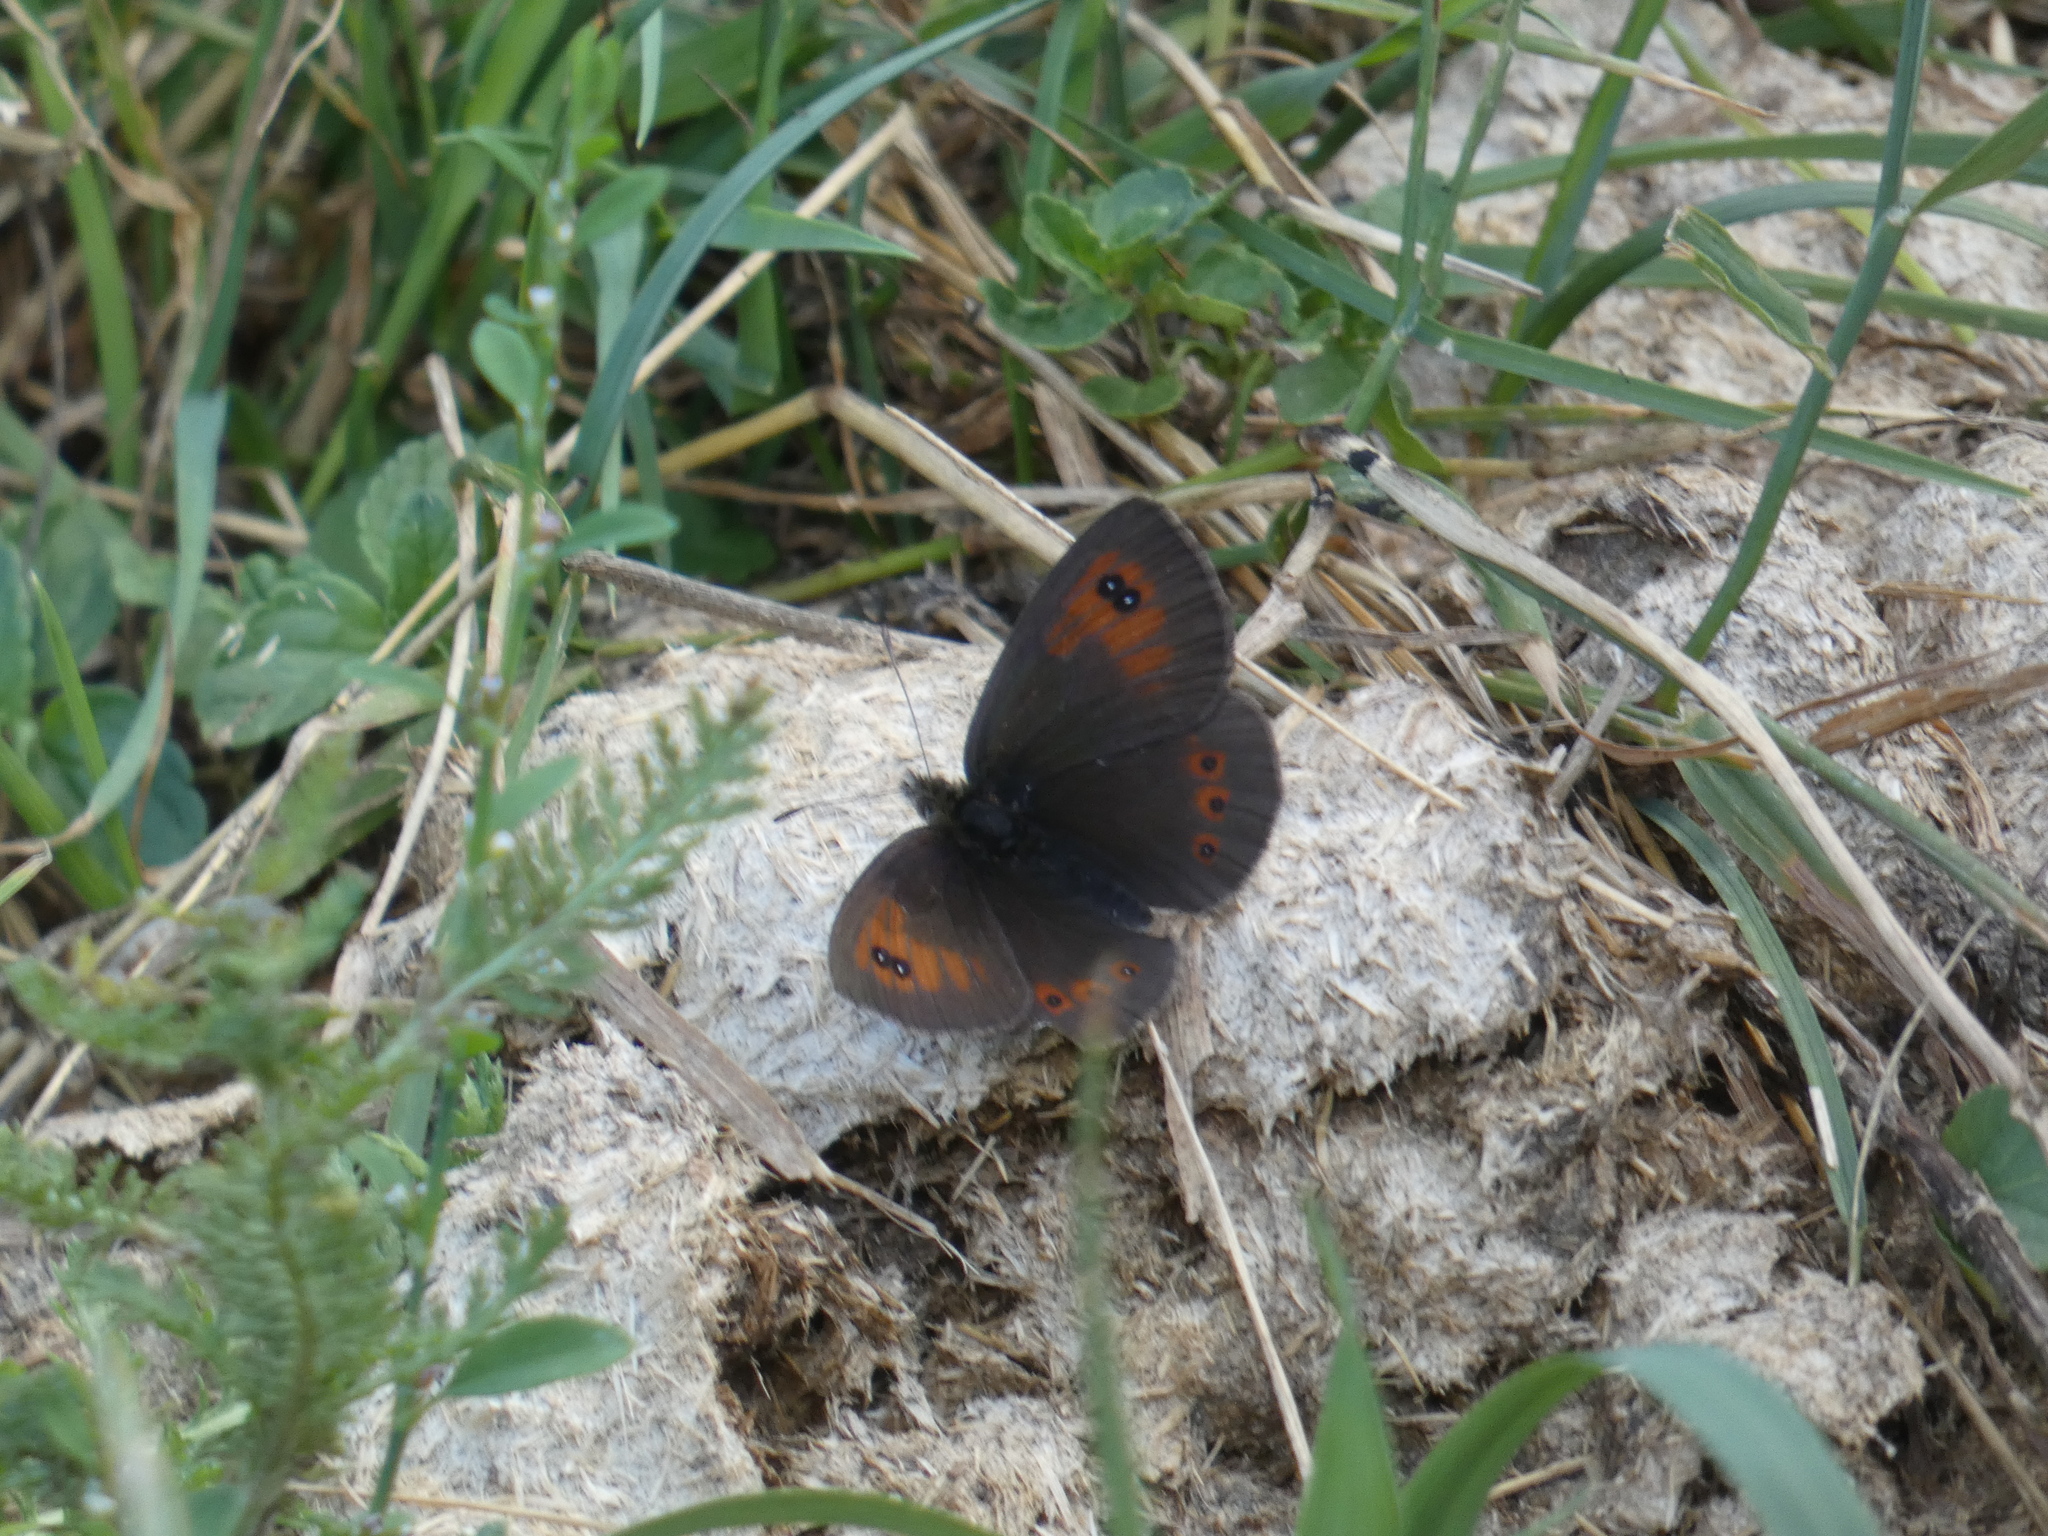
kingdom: Animalia
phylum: Arthropoda
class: Insecta
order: Lepidoptera
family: Nymphalidae
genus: Erebia
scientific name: Erebia cassioides
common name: Common brassy ringlet
